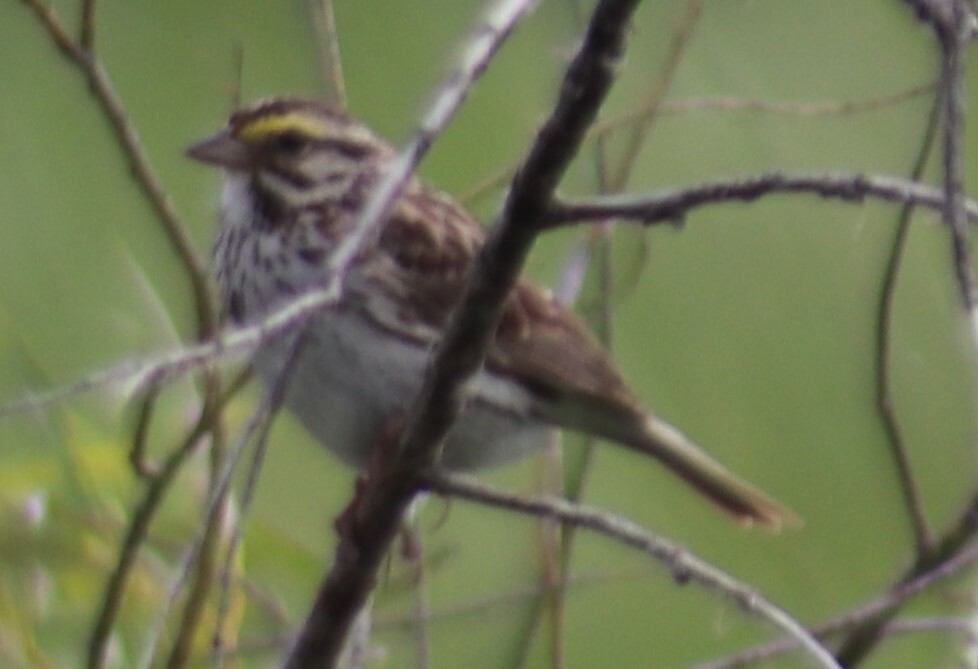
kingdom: Animalia
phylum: Chordata
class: Aves
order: Passeriformes
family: Passerellidae
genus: Passerculus
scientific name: Passerculus sandwichensis
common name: Savannah sparrow
